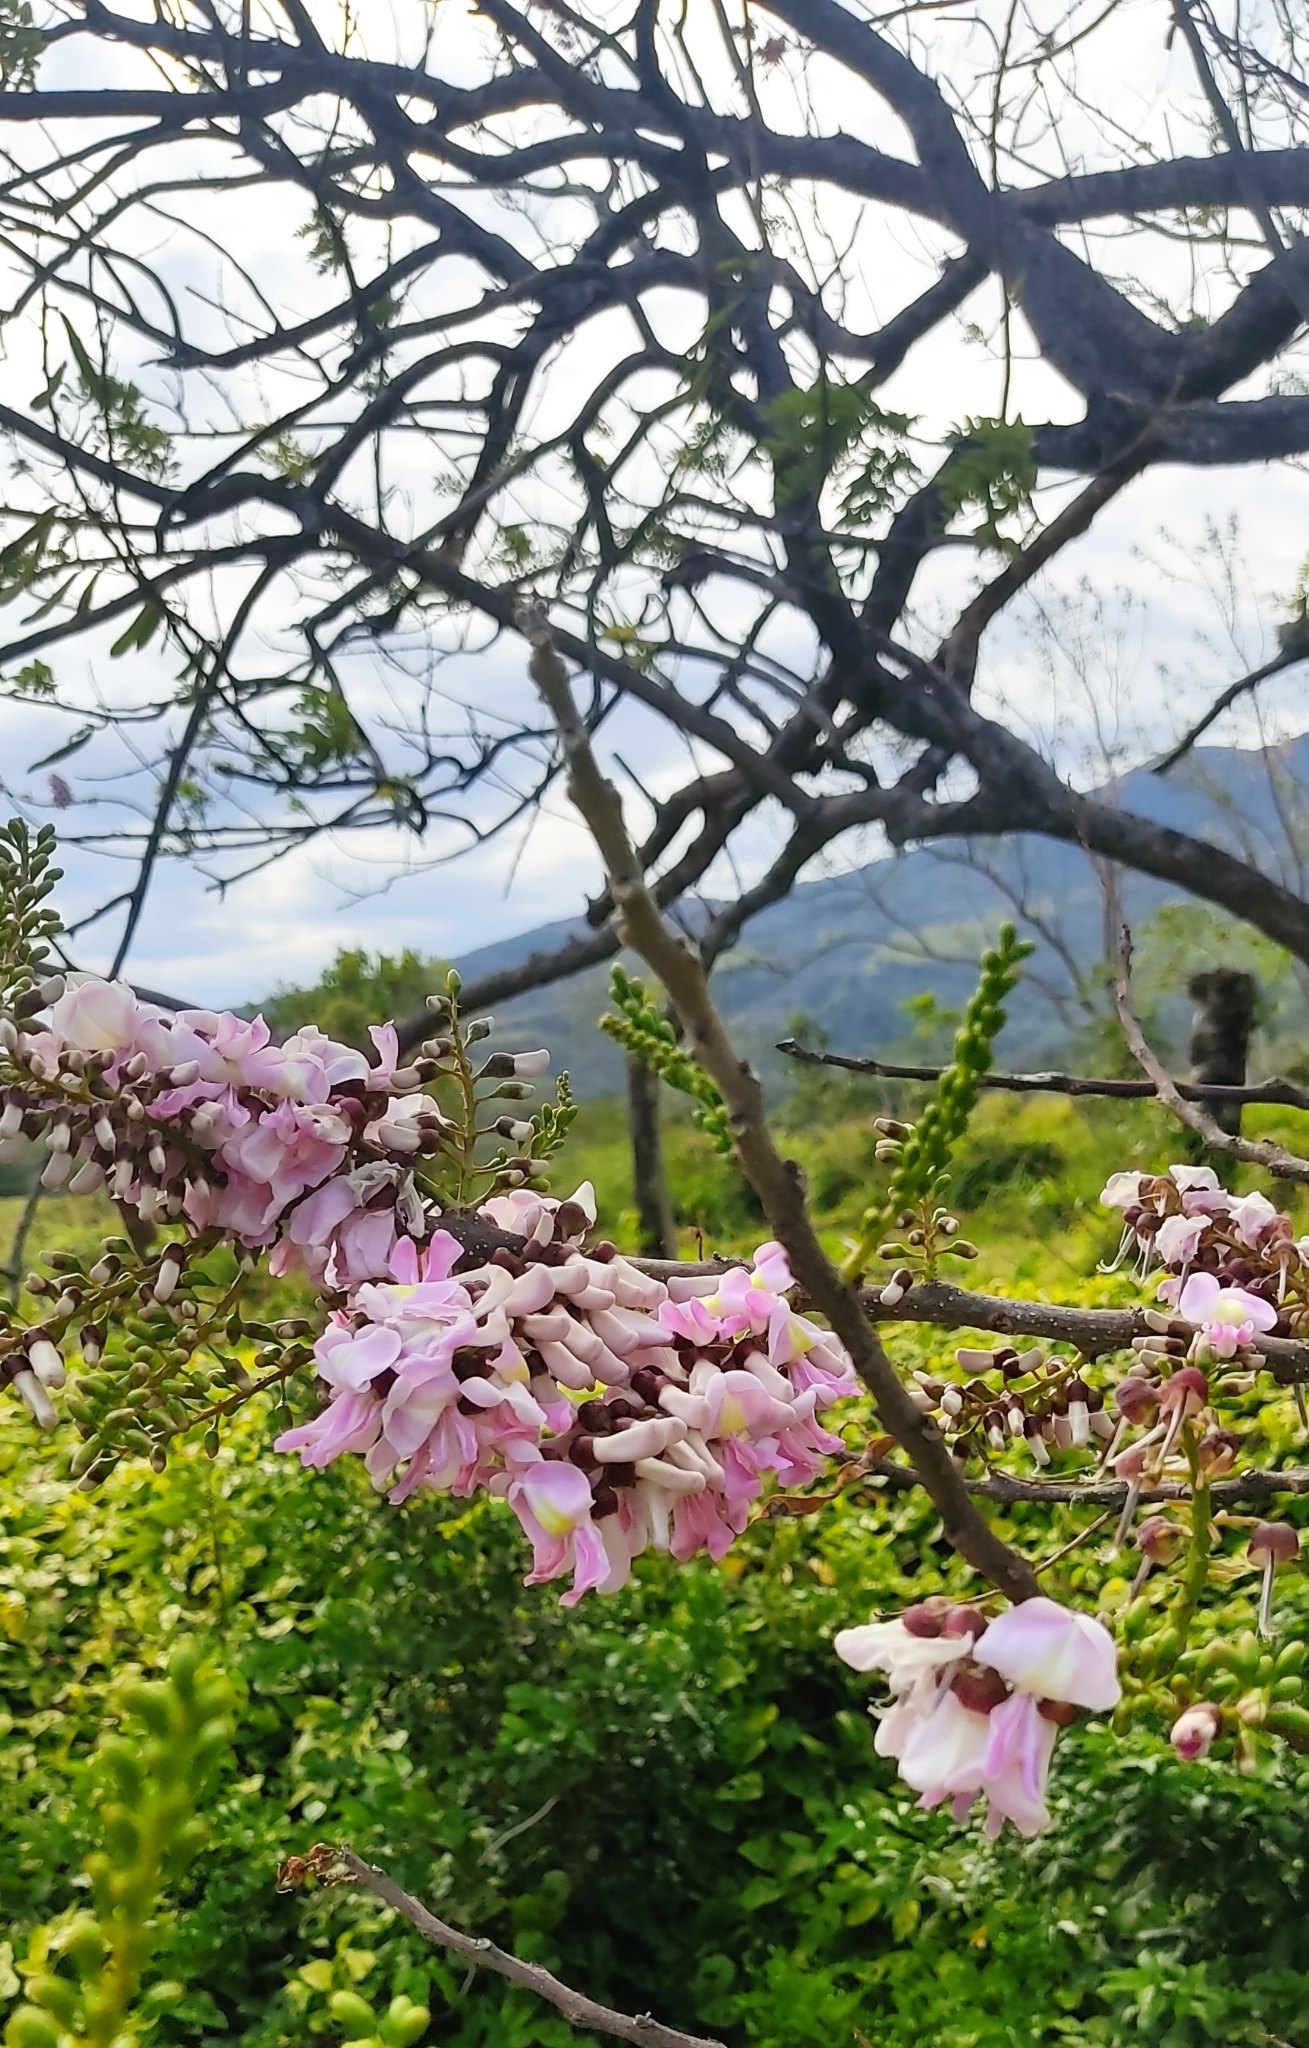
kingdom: Plantae
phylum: Tracheophyta
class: Magnoliopsida
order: Fabales
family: Fabaceae
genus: Gliricidia
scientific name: Gliricidia sepium
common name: Quickstick
